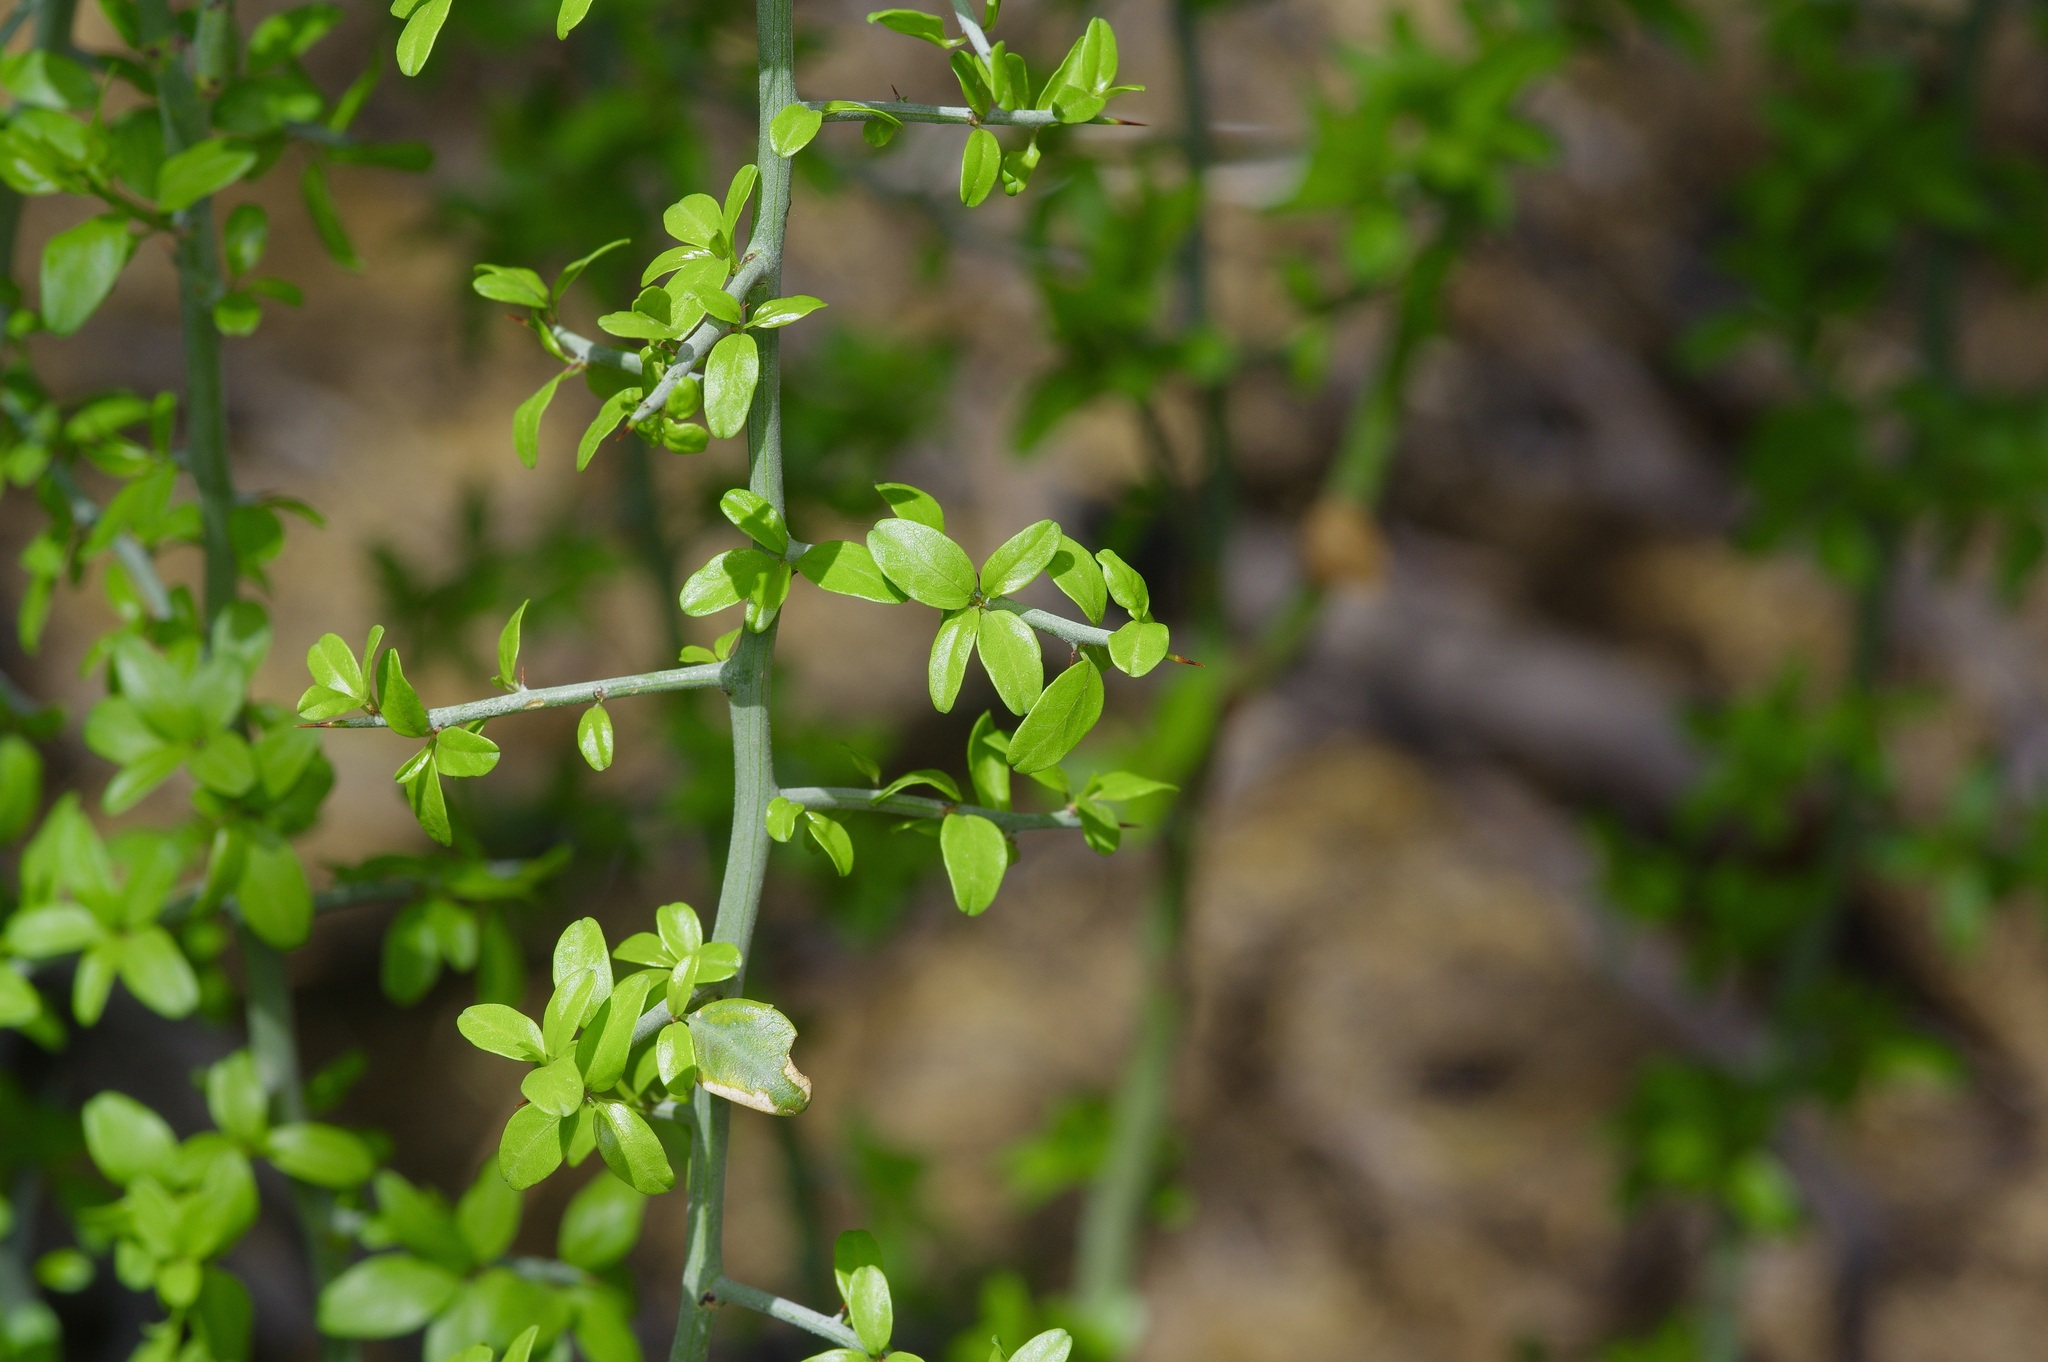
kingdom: Plantae
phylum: Tracheophyta
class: Magnoliopsida
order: Rosales
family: Rhamnaceae
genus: Sarcomphalus
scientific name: Sarcomphalus obtusifolius
